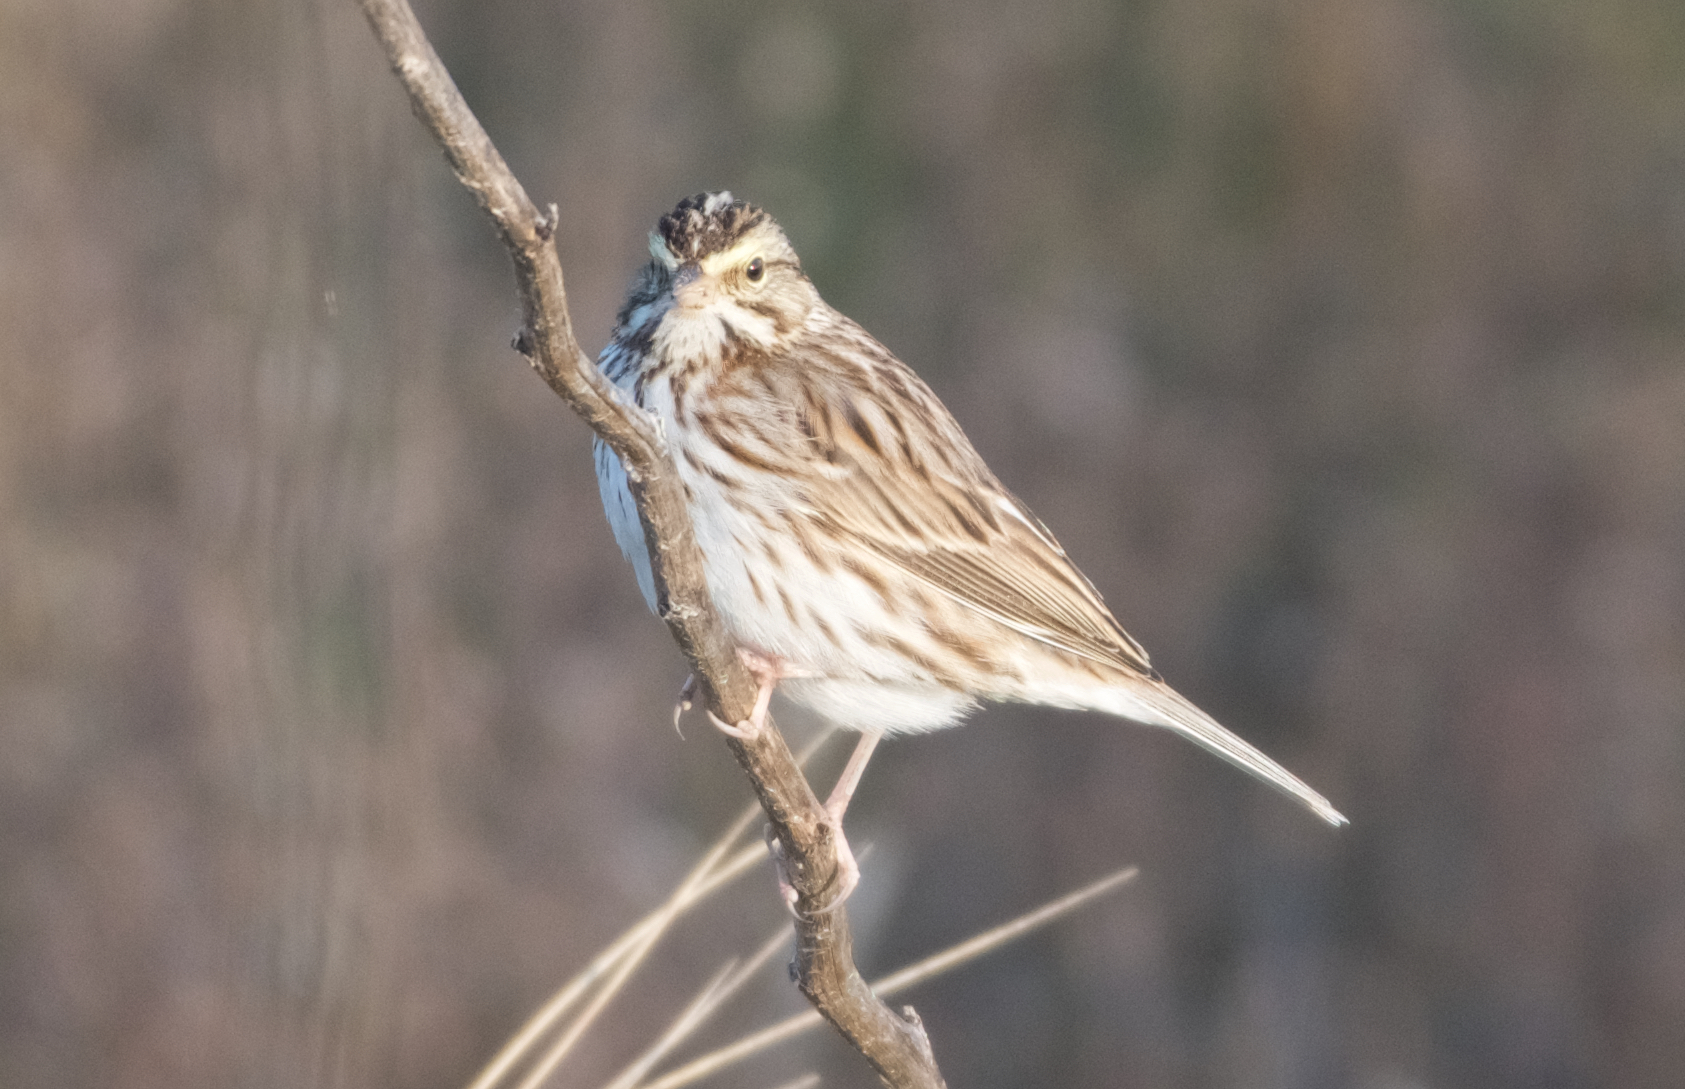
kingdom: Animalia
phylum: Chordata
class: Aves
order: Passeriformes
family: Passerellidae
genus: Passerculus
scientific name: Passerculus sandwichensis
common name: Savannah sparrow
